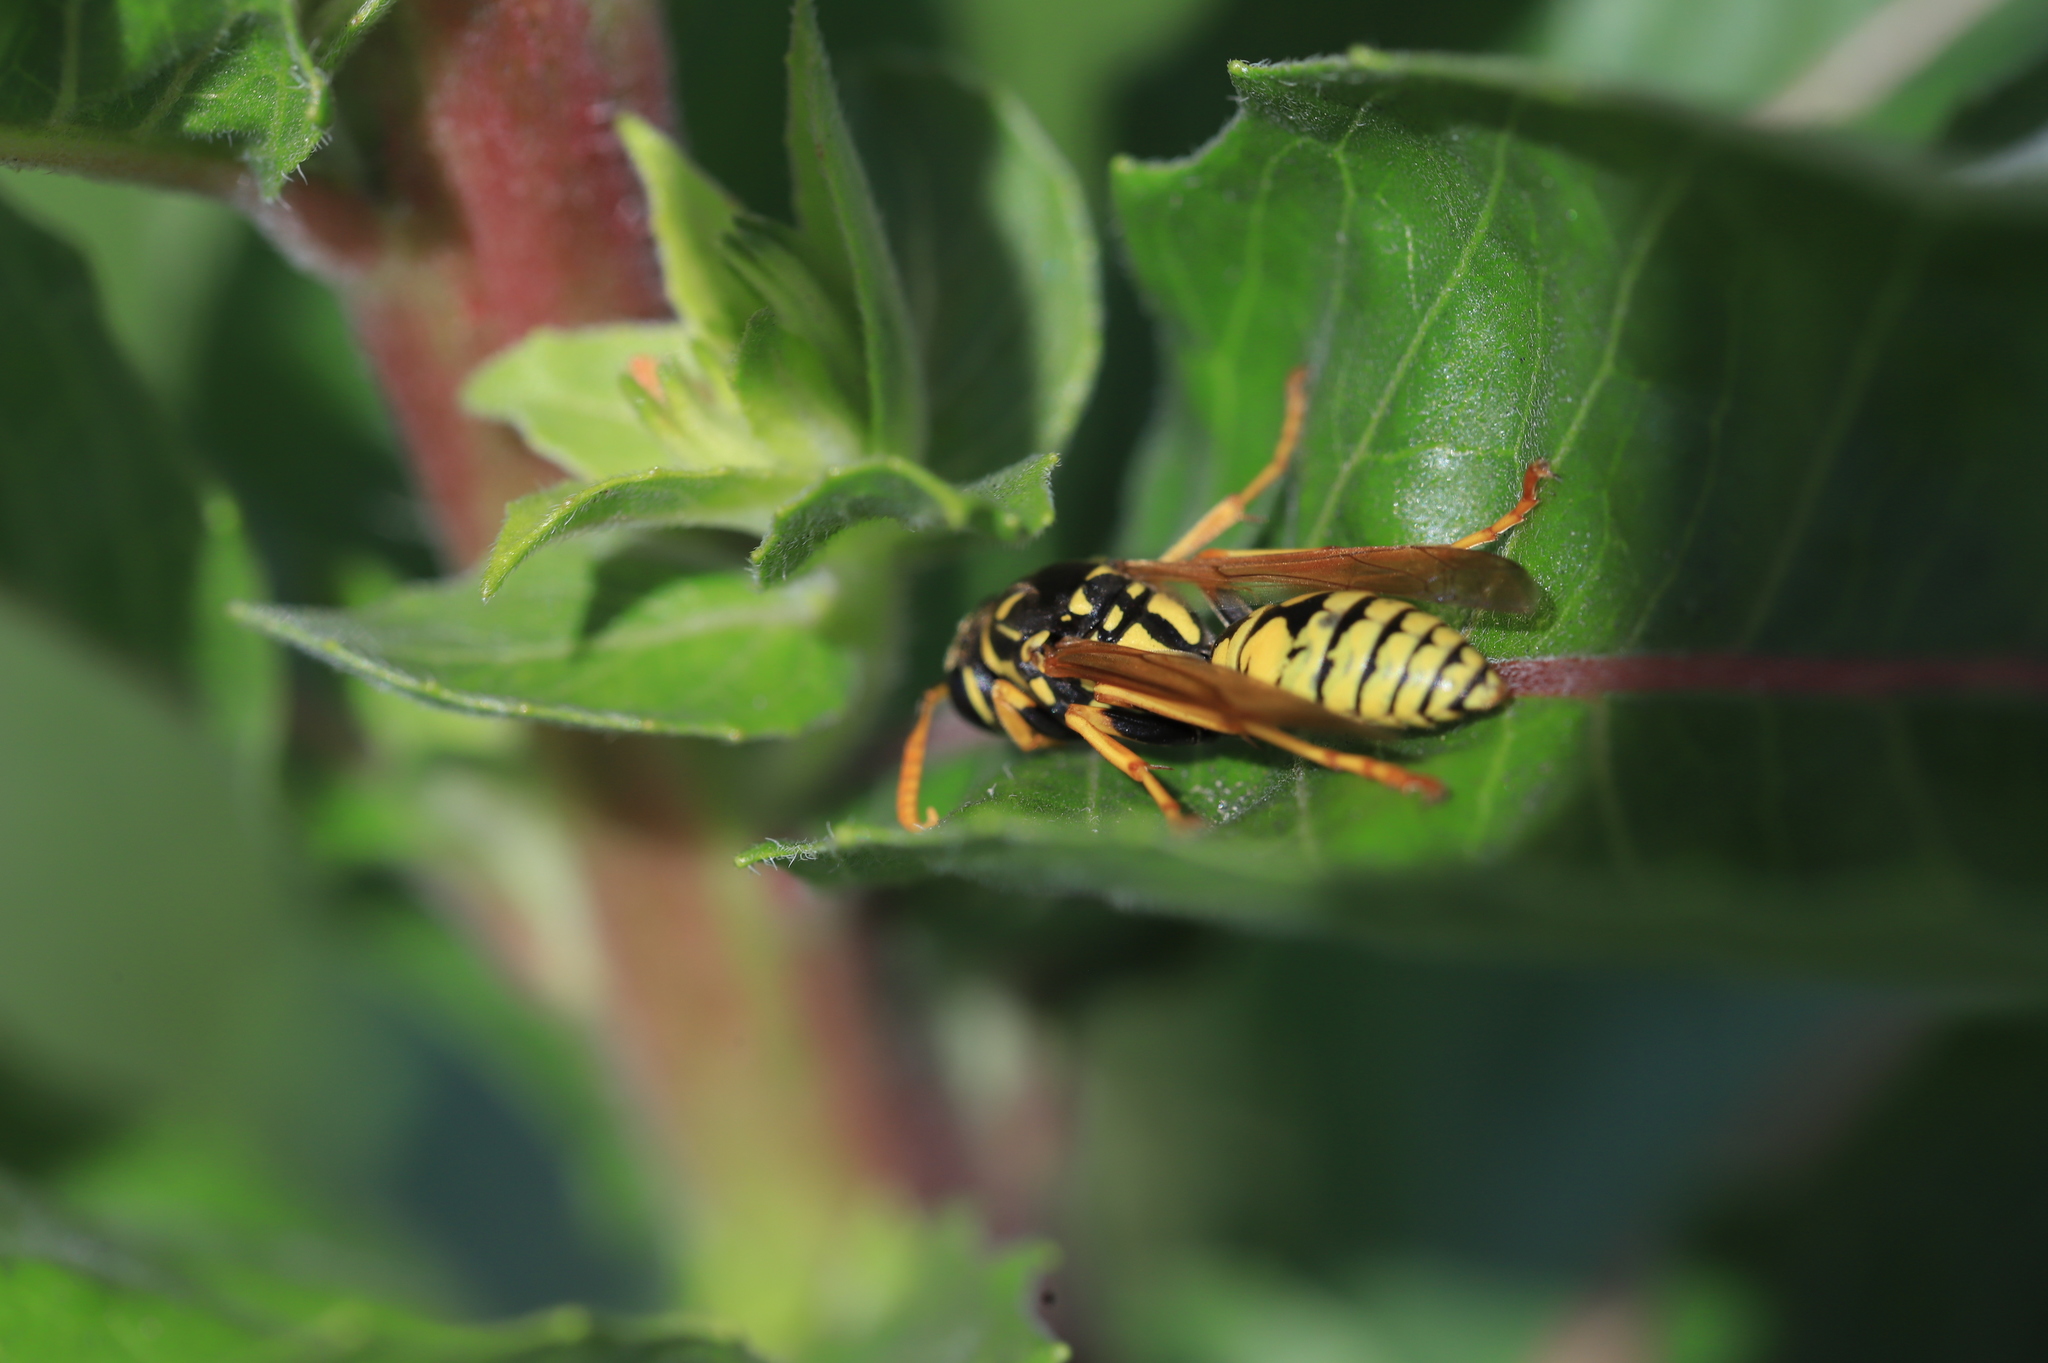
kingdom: Animalia
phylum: Arthropoda
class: Insecta
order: Hymenoptera
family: Eumenidae
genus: Polistes
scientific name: Polistes dominula
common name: Paper wasp
